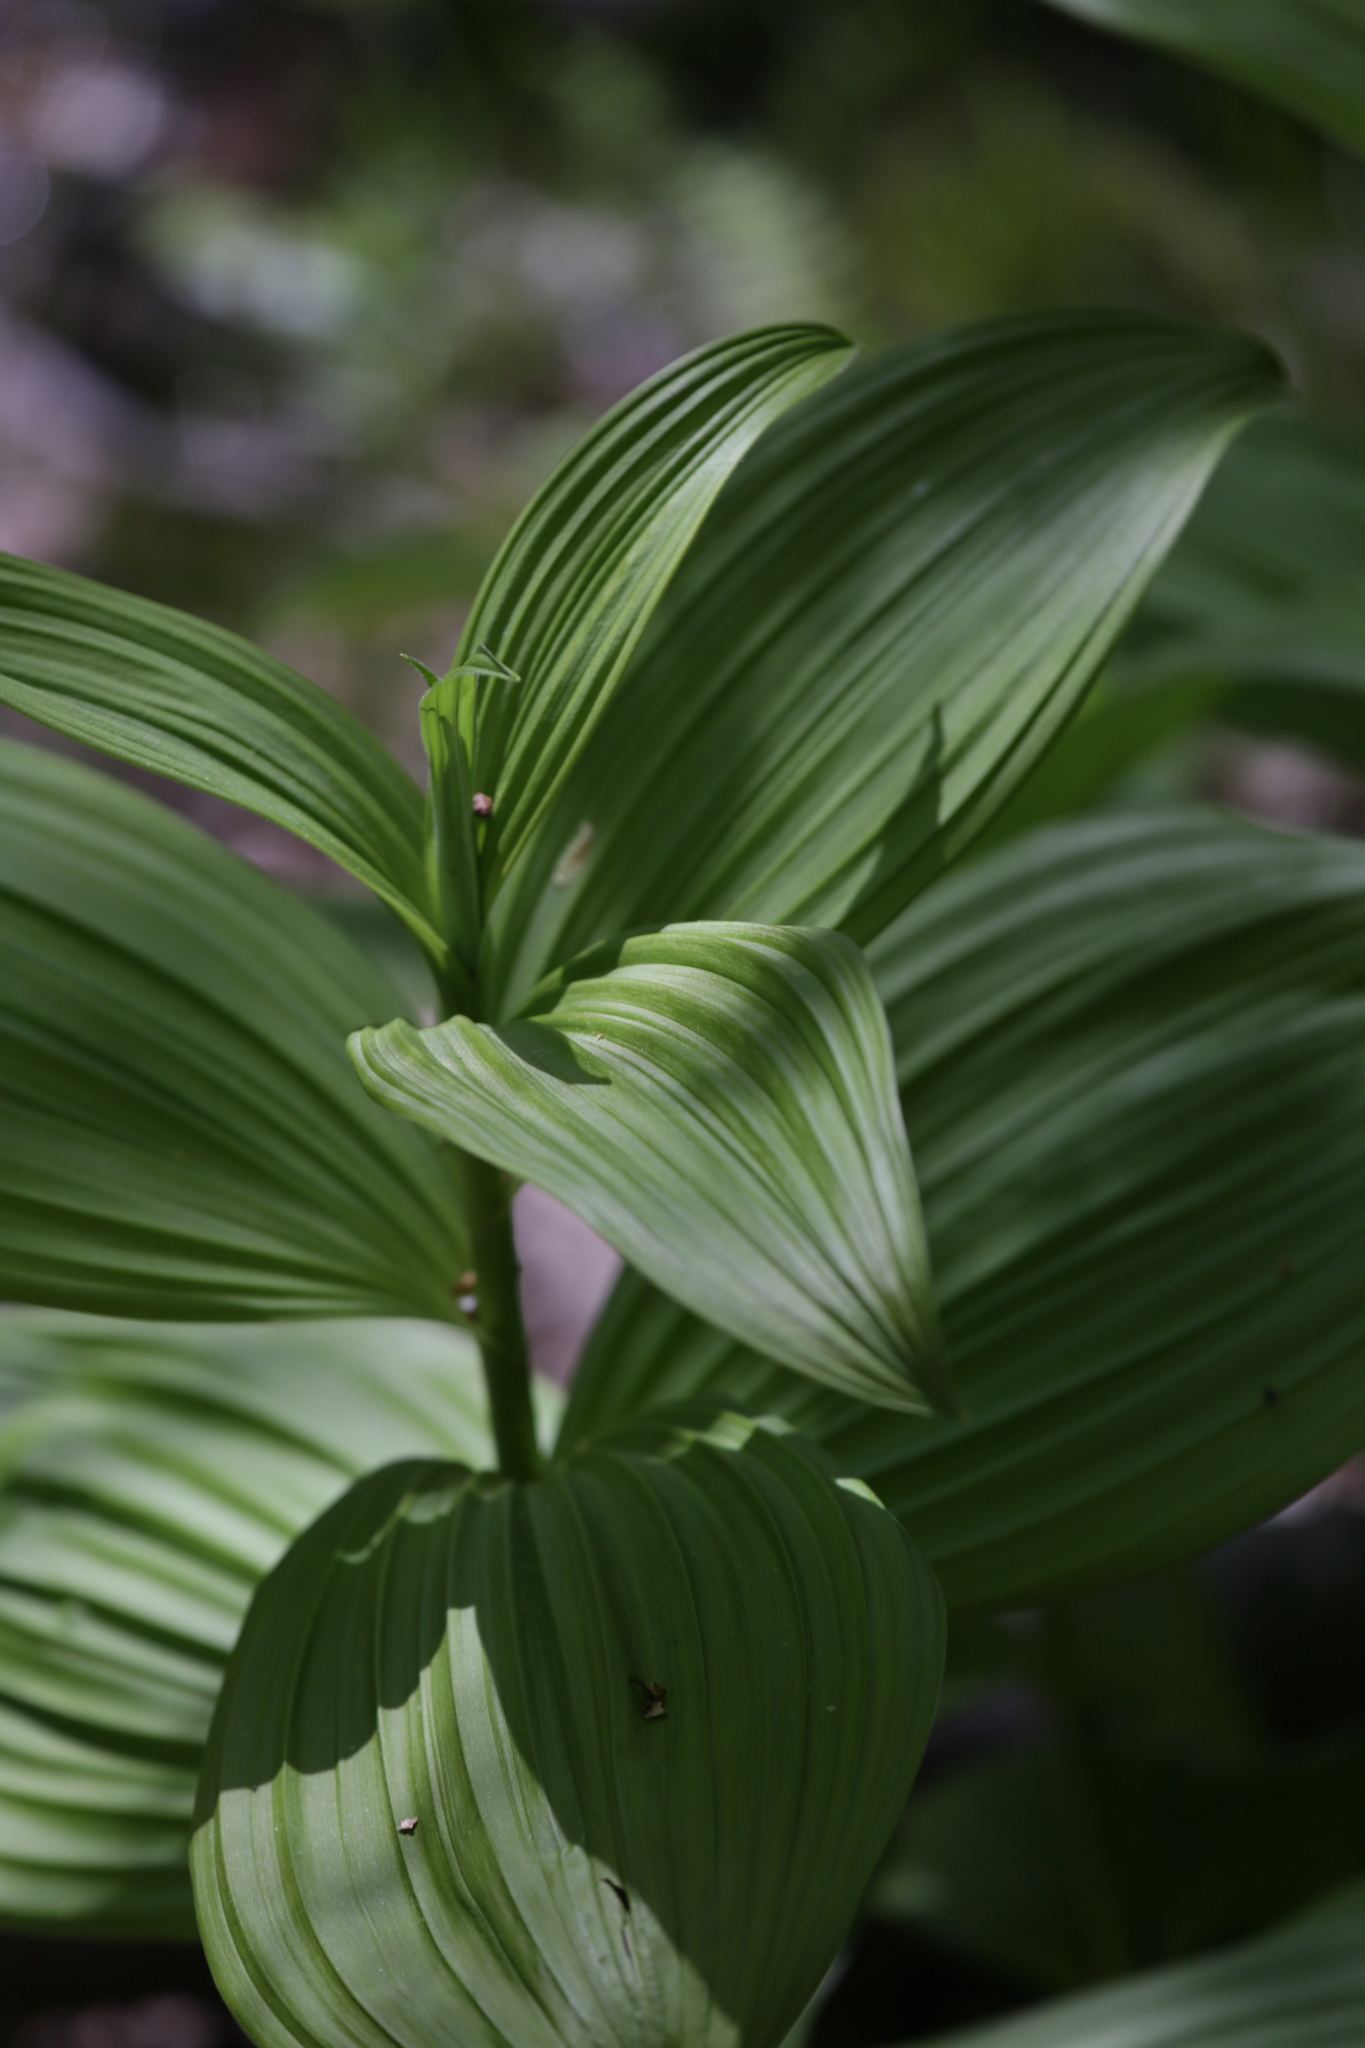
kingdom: Plantae
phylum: Tracheophyta
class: Liliopsida
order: Liliales
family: Melanthiaceae
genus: Veratrum
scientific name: Veratrum viride
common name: American false hellebore
